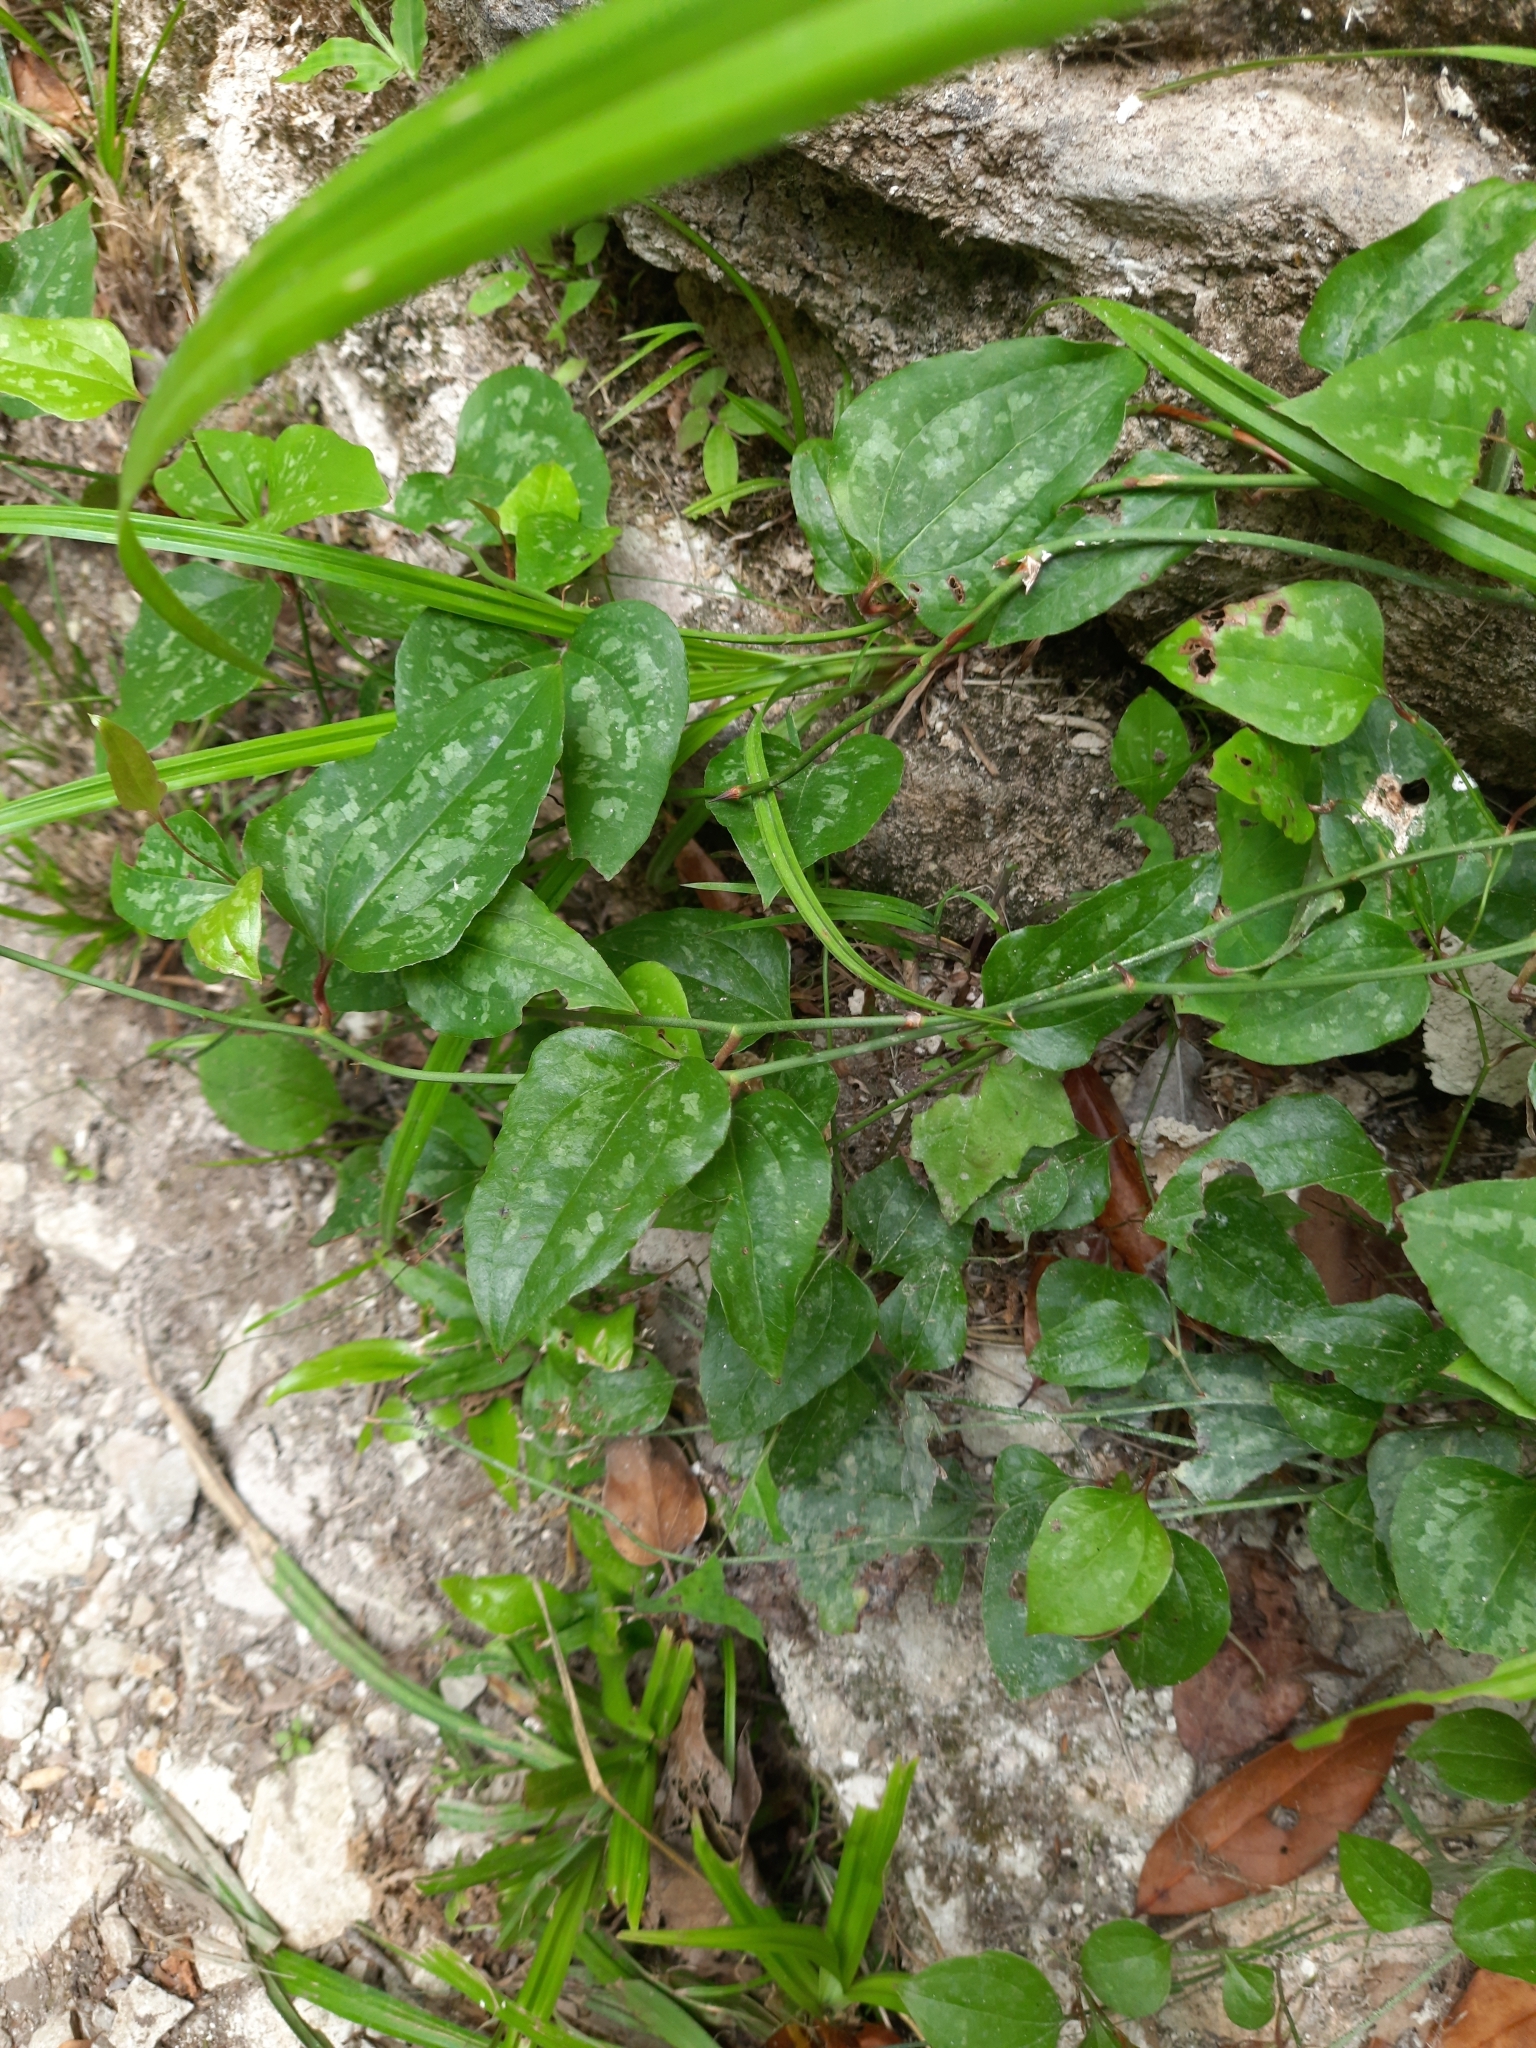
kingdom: Plantae
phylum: Tracheophyta
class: Liliopsida
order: Liliales
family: Smilacaceae
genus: Smilax
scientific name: Smilax excelsa
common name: Larger smilax
